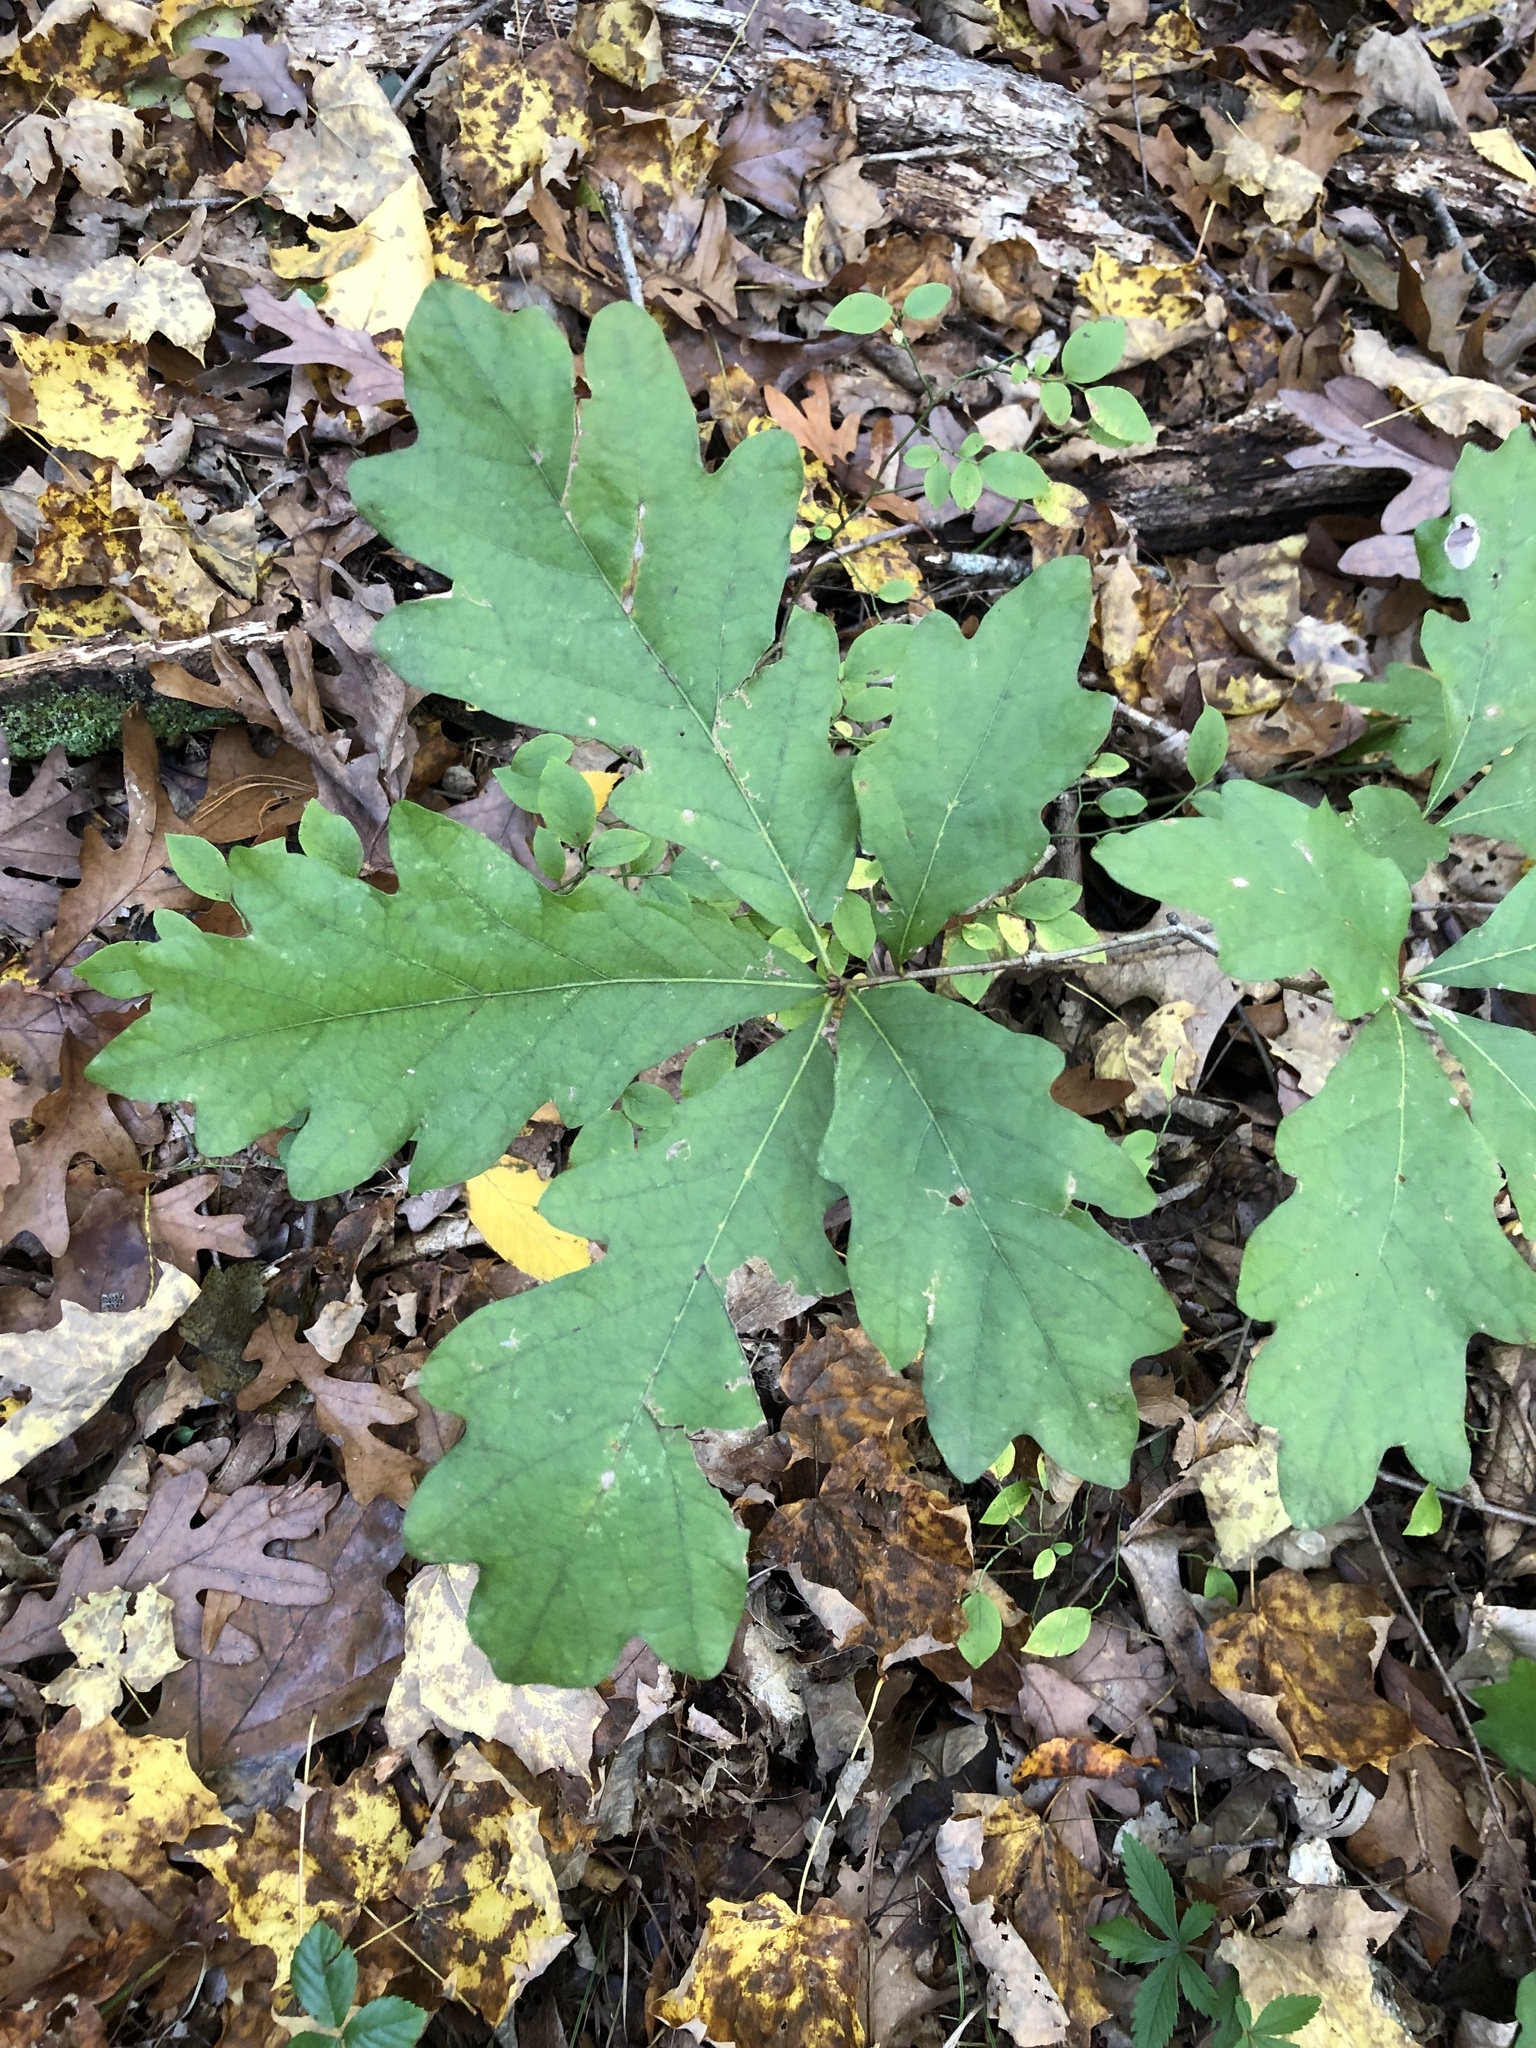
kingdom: Plantae
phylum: Tracheophyta
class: Magnoliopsida
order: Fagales
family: Fagaceae
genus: Quercus
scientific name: Quercus alba
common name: White oak
